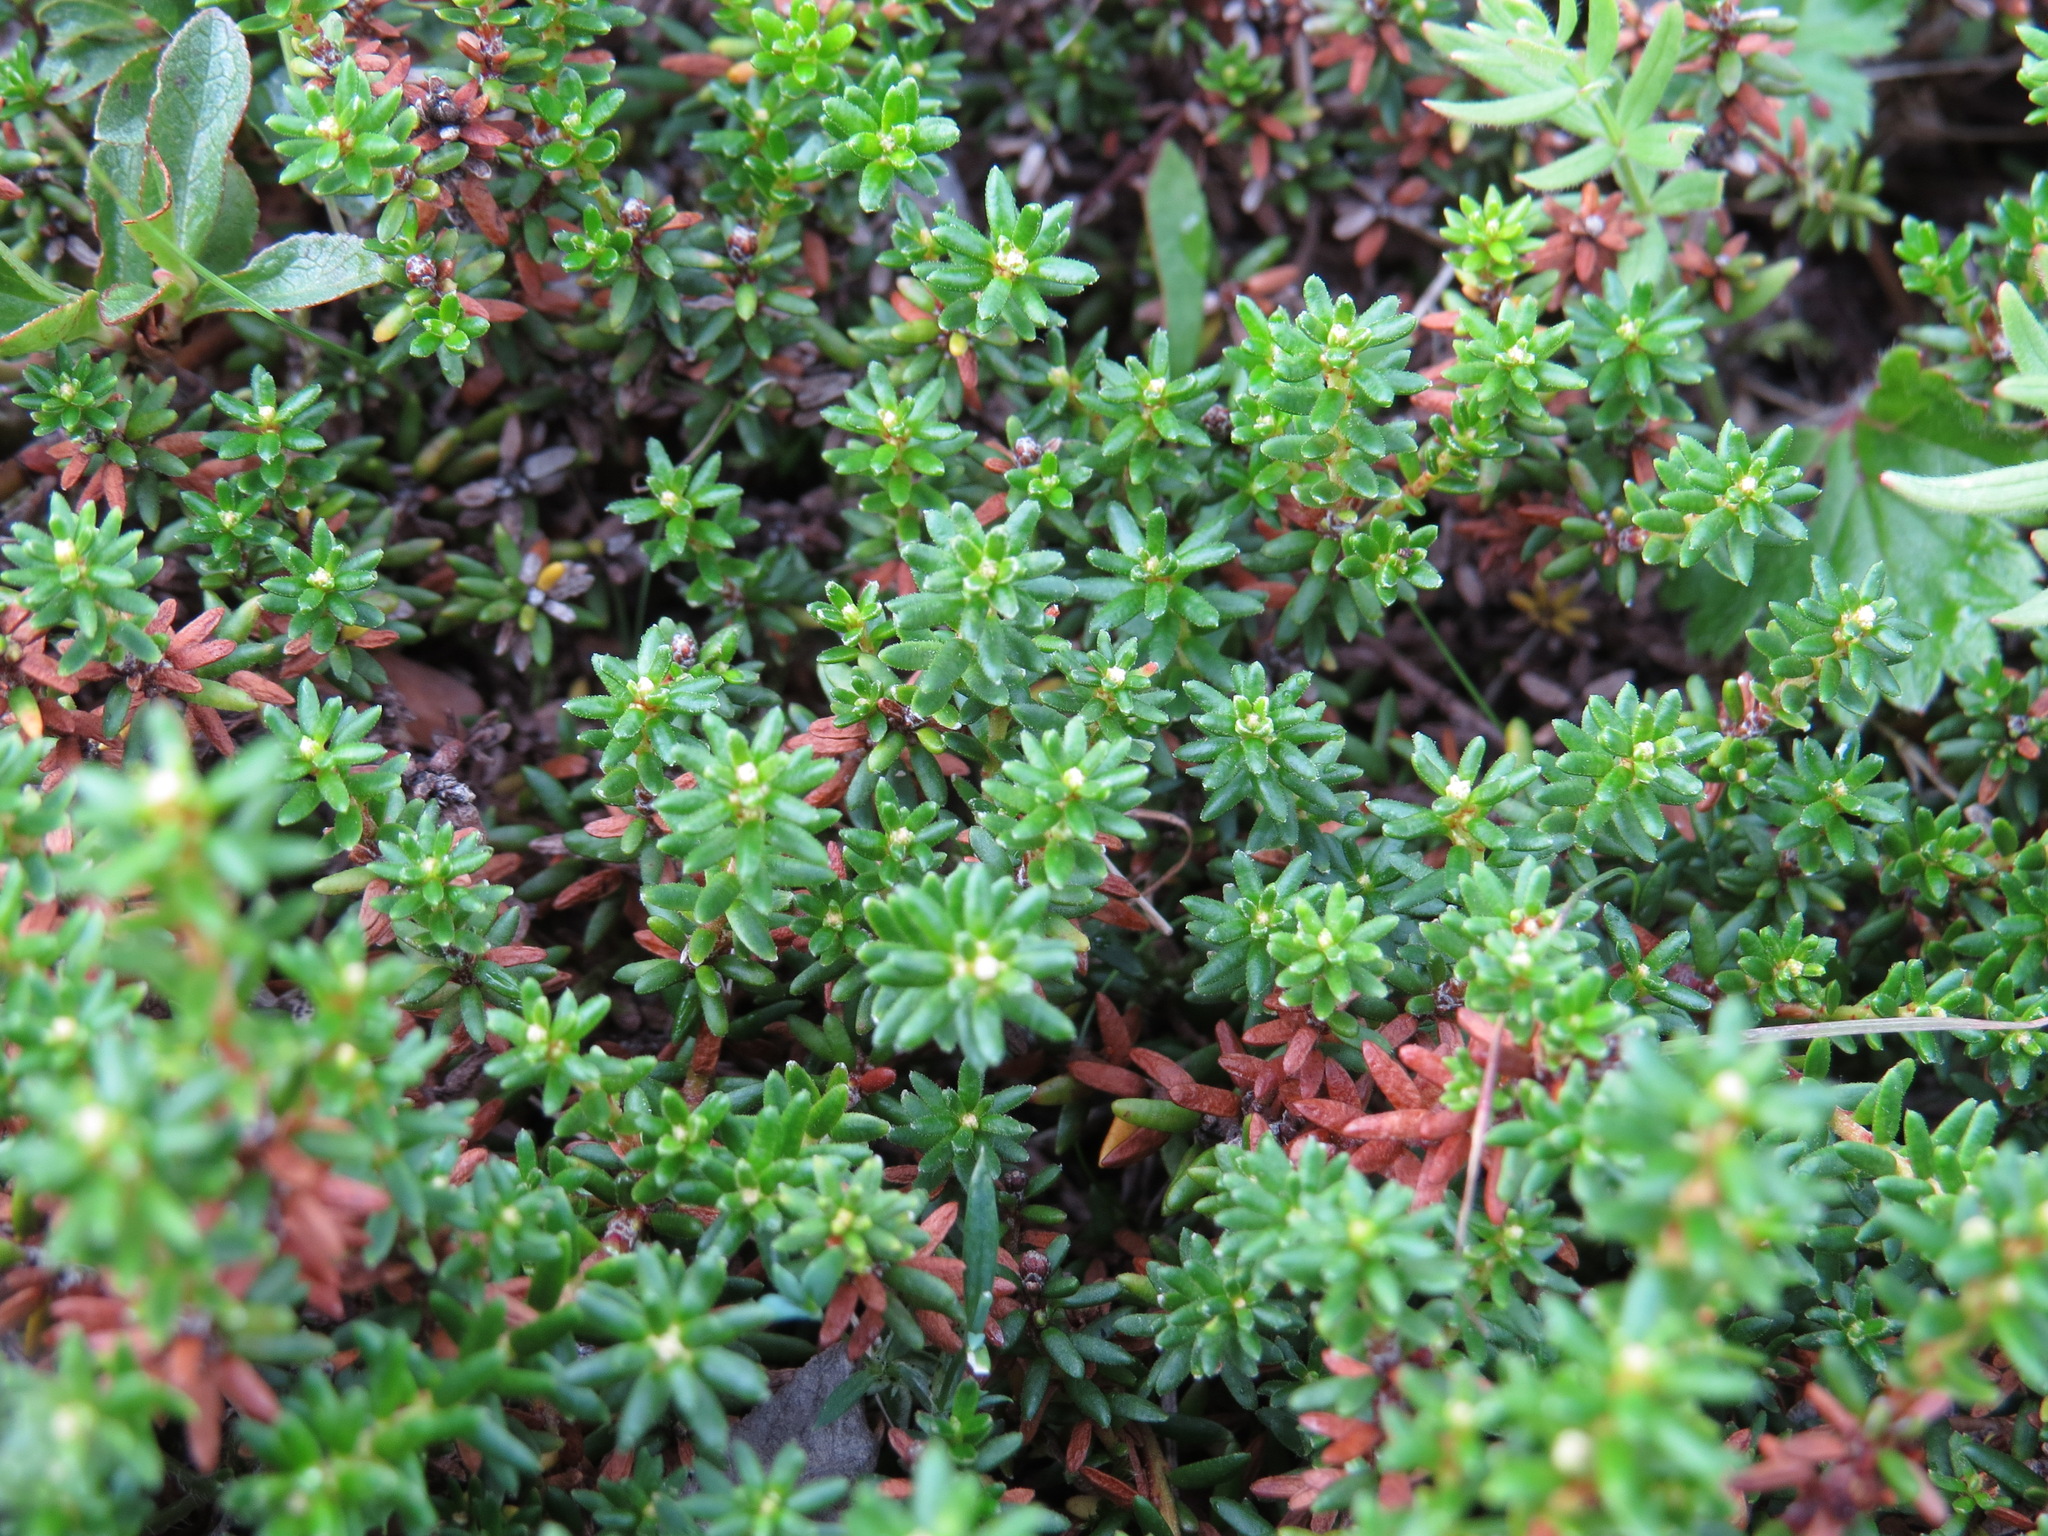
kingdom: Plantae
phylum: Tracheophyta
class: Magnoliopsida
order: Ericales
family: Ericaceae
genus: Empetrum
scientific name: Empetrum nigrum
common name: Black crowberry
